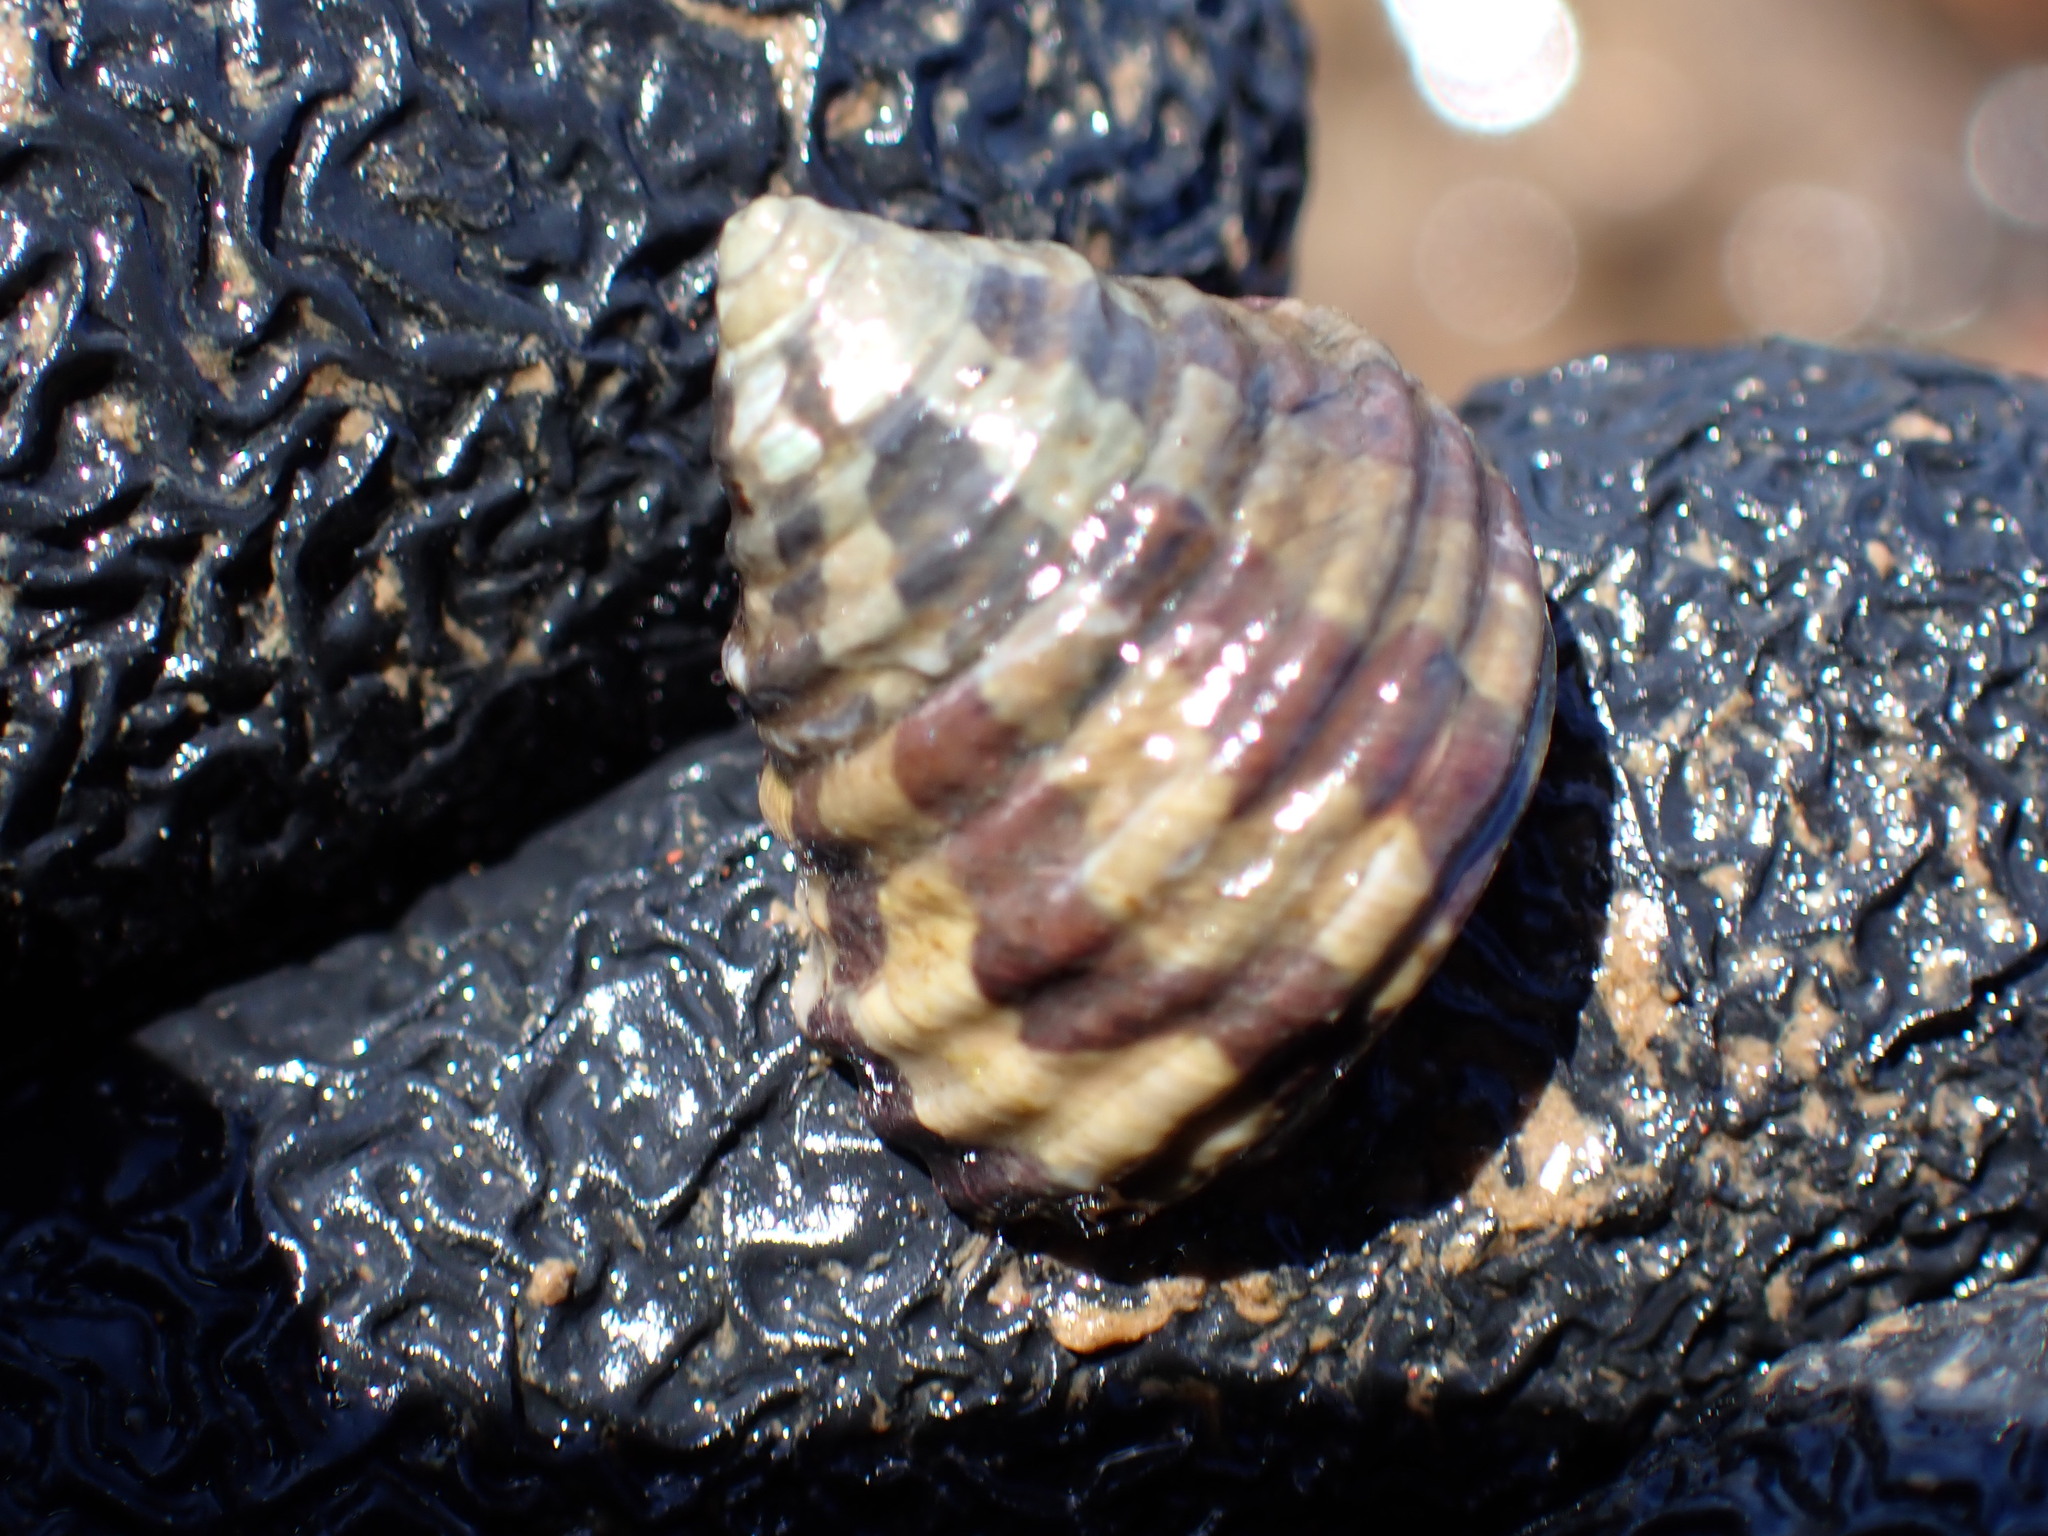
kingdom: Animalia
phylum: Mollusca
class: Gastropoda
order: Trochida
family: Trochidae
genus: Austrocochlea
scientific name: Austrocochlea porcata
